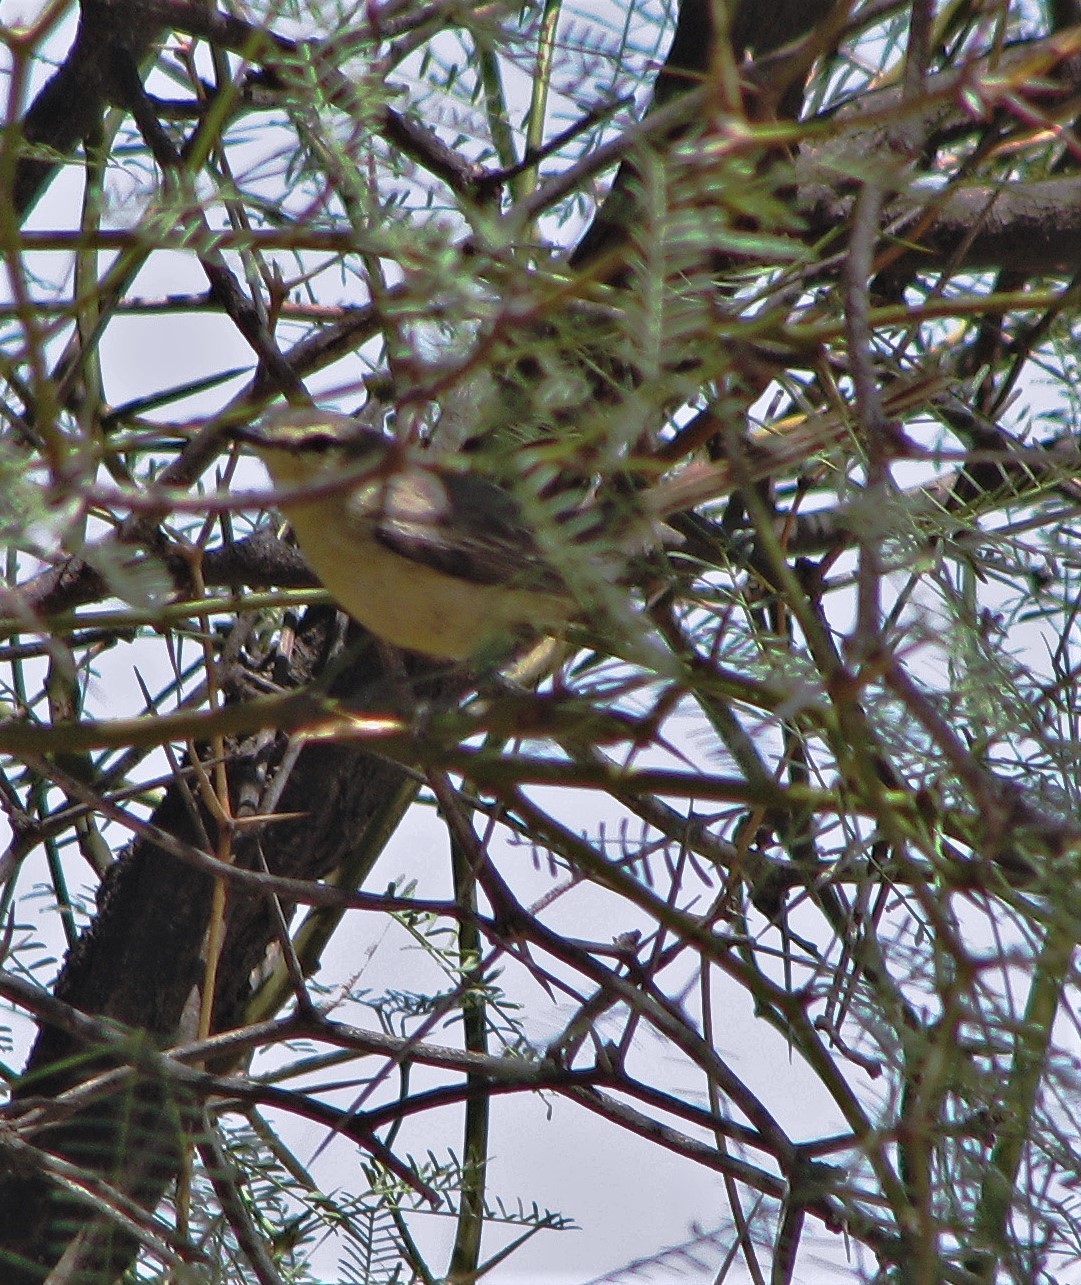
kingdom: Animalia
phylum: Chordata
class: Aves
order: Passeriformes
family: Tyrannidae
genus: Stigmatura
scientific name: Stigmatura budytoides
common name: Greater wagtail-tyrant
